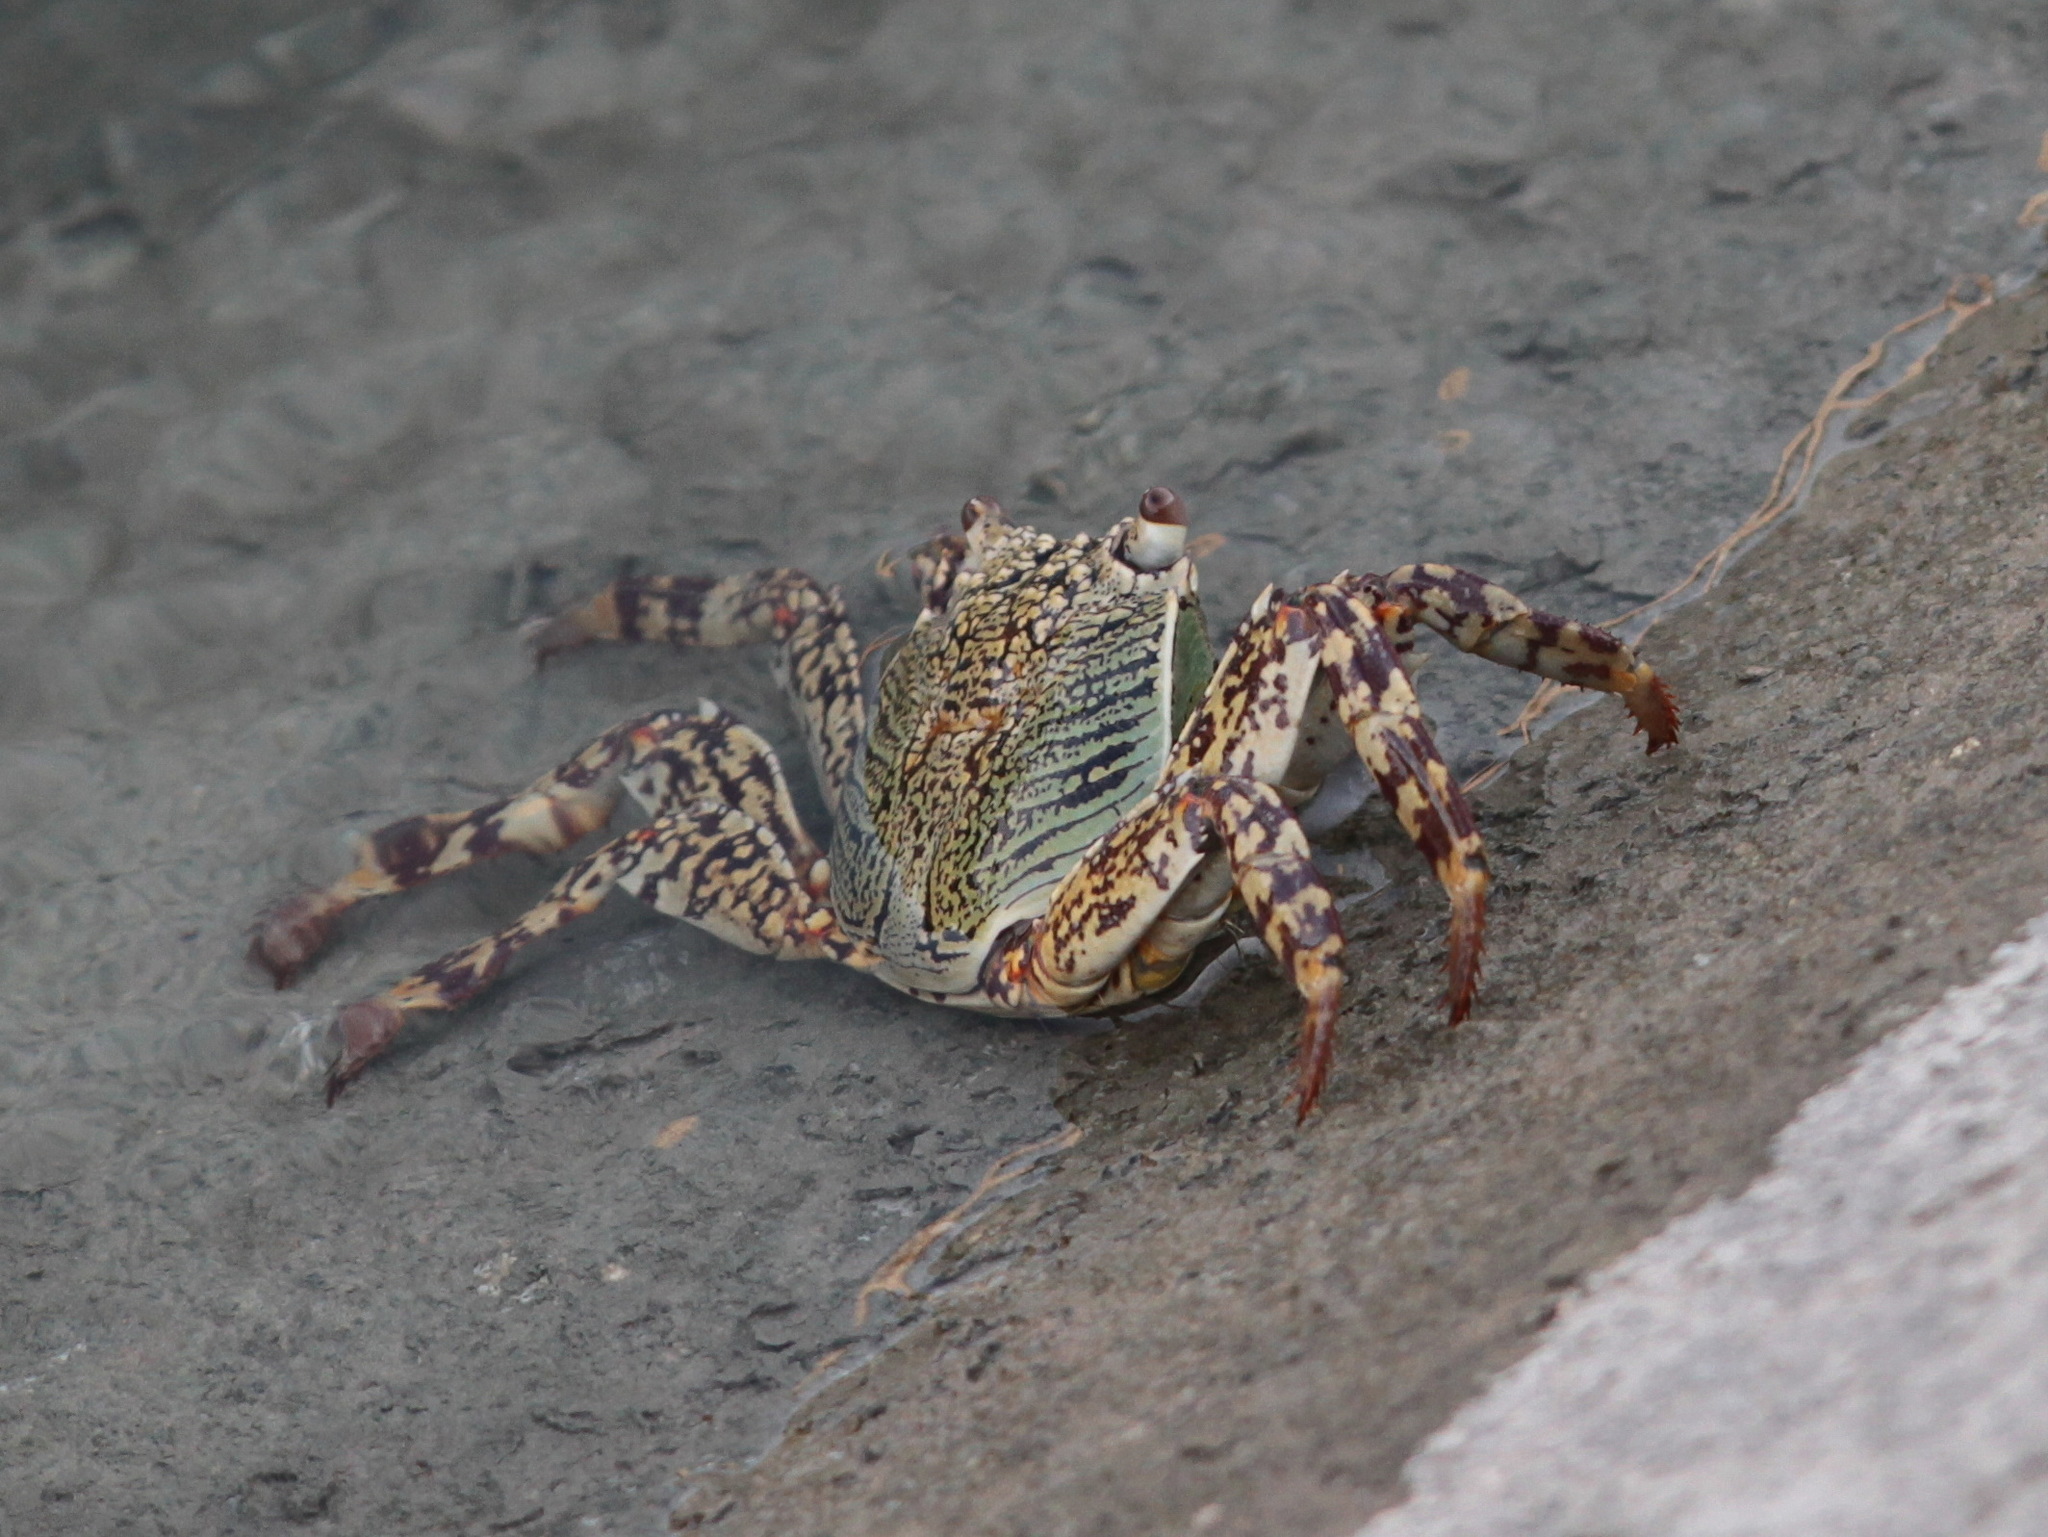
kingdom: Animalia
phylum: Arthropoda
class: Malacostraca
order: Decapoda
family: Grapsidae
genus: Grapsus
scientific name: Grapsus albolineatus
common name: Mottled lightfoot crab
